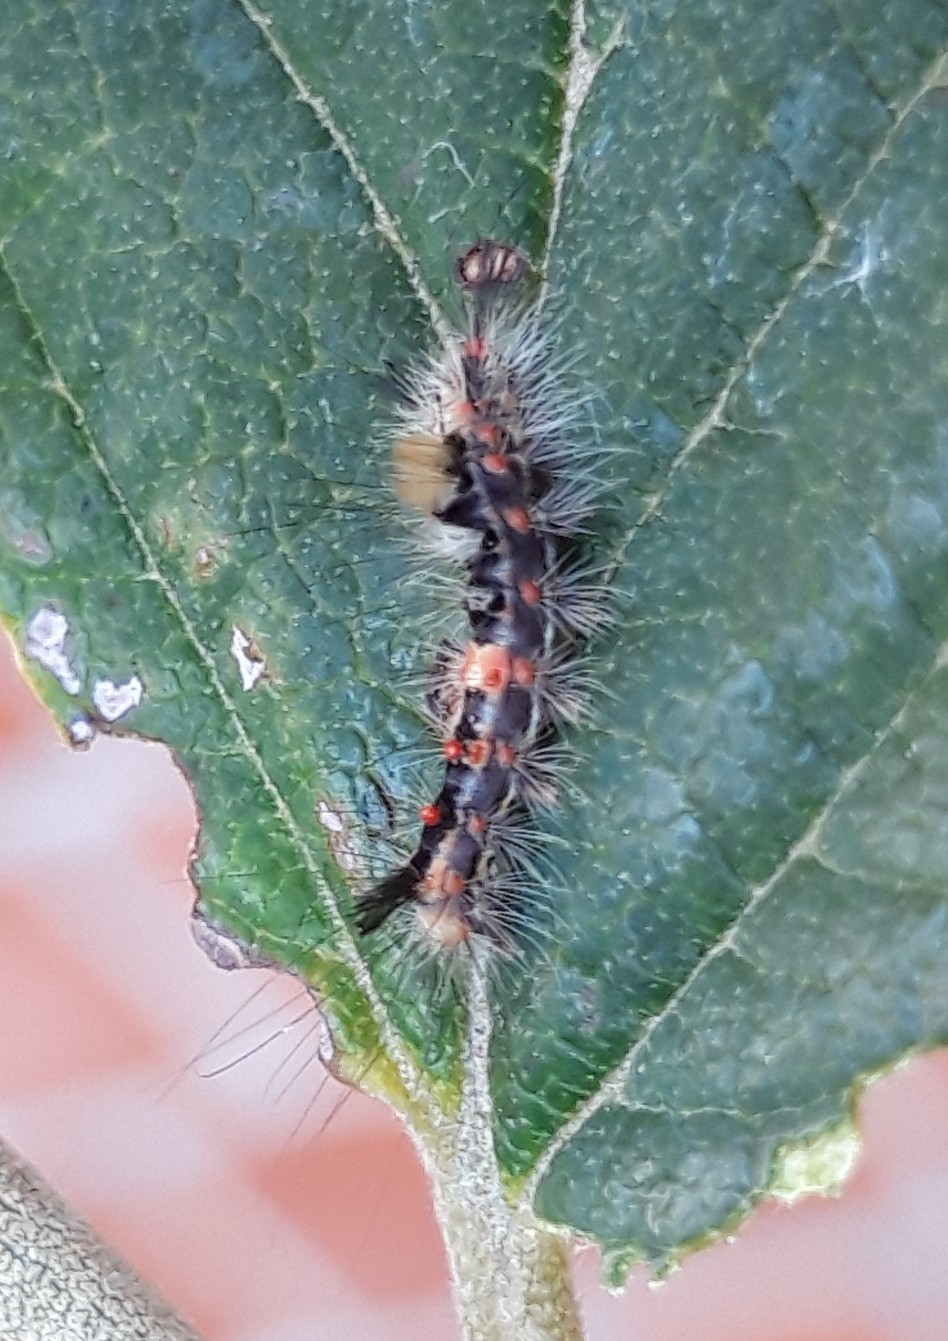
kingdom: Animalia
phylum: Arthropoda
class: Insecta
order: Lepidoptera
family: Erebidae
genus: Orgyia
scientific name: Orgyia antiqua
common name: Vapourer
